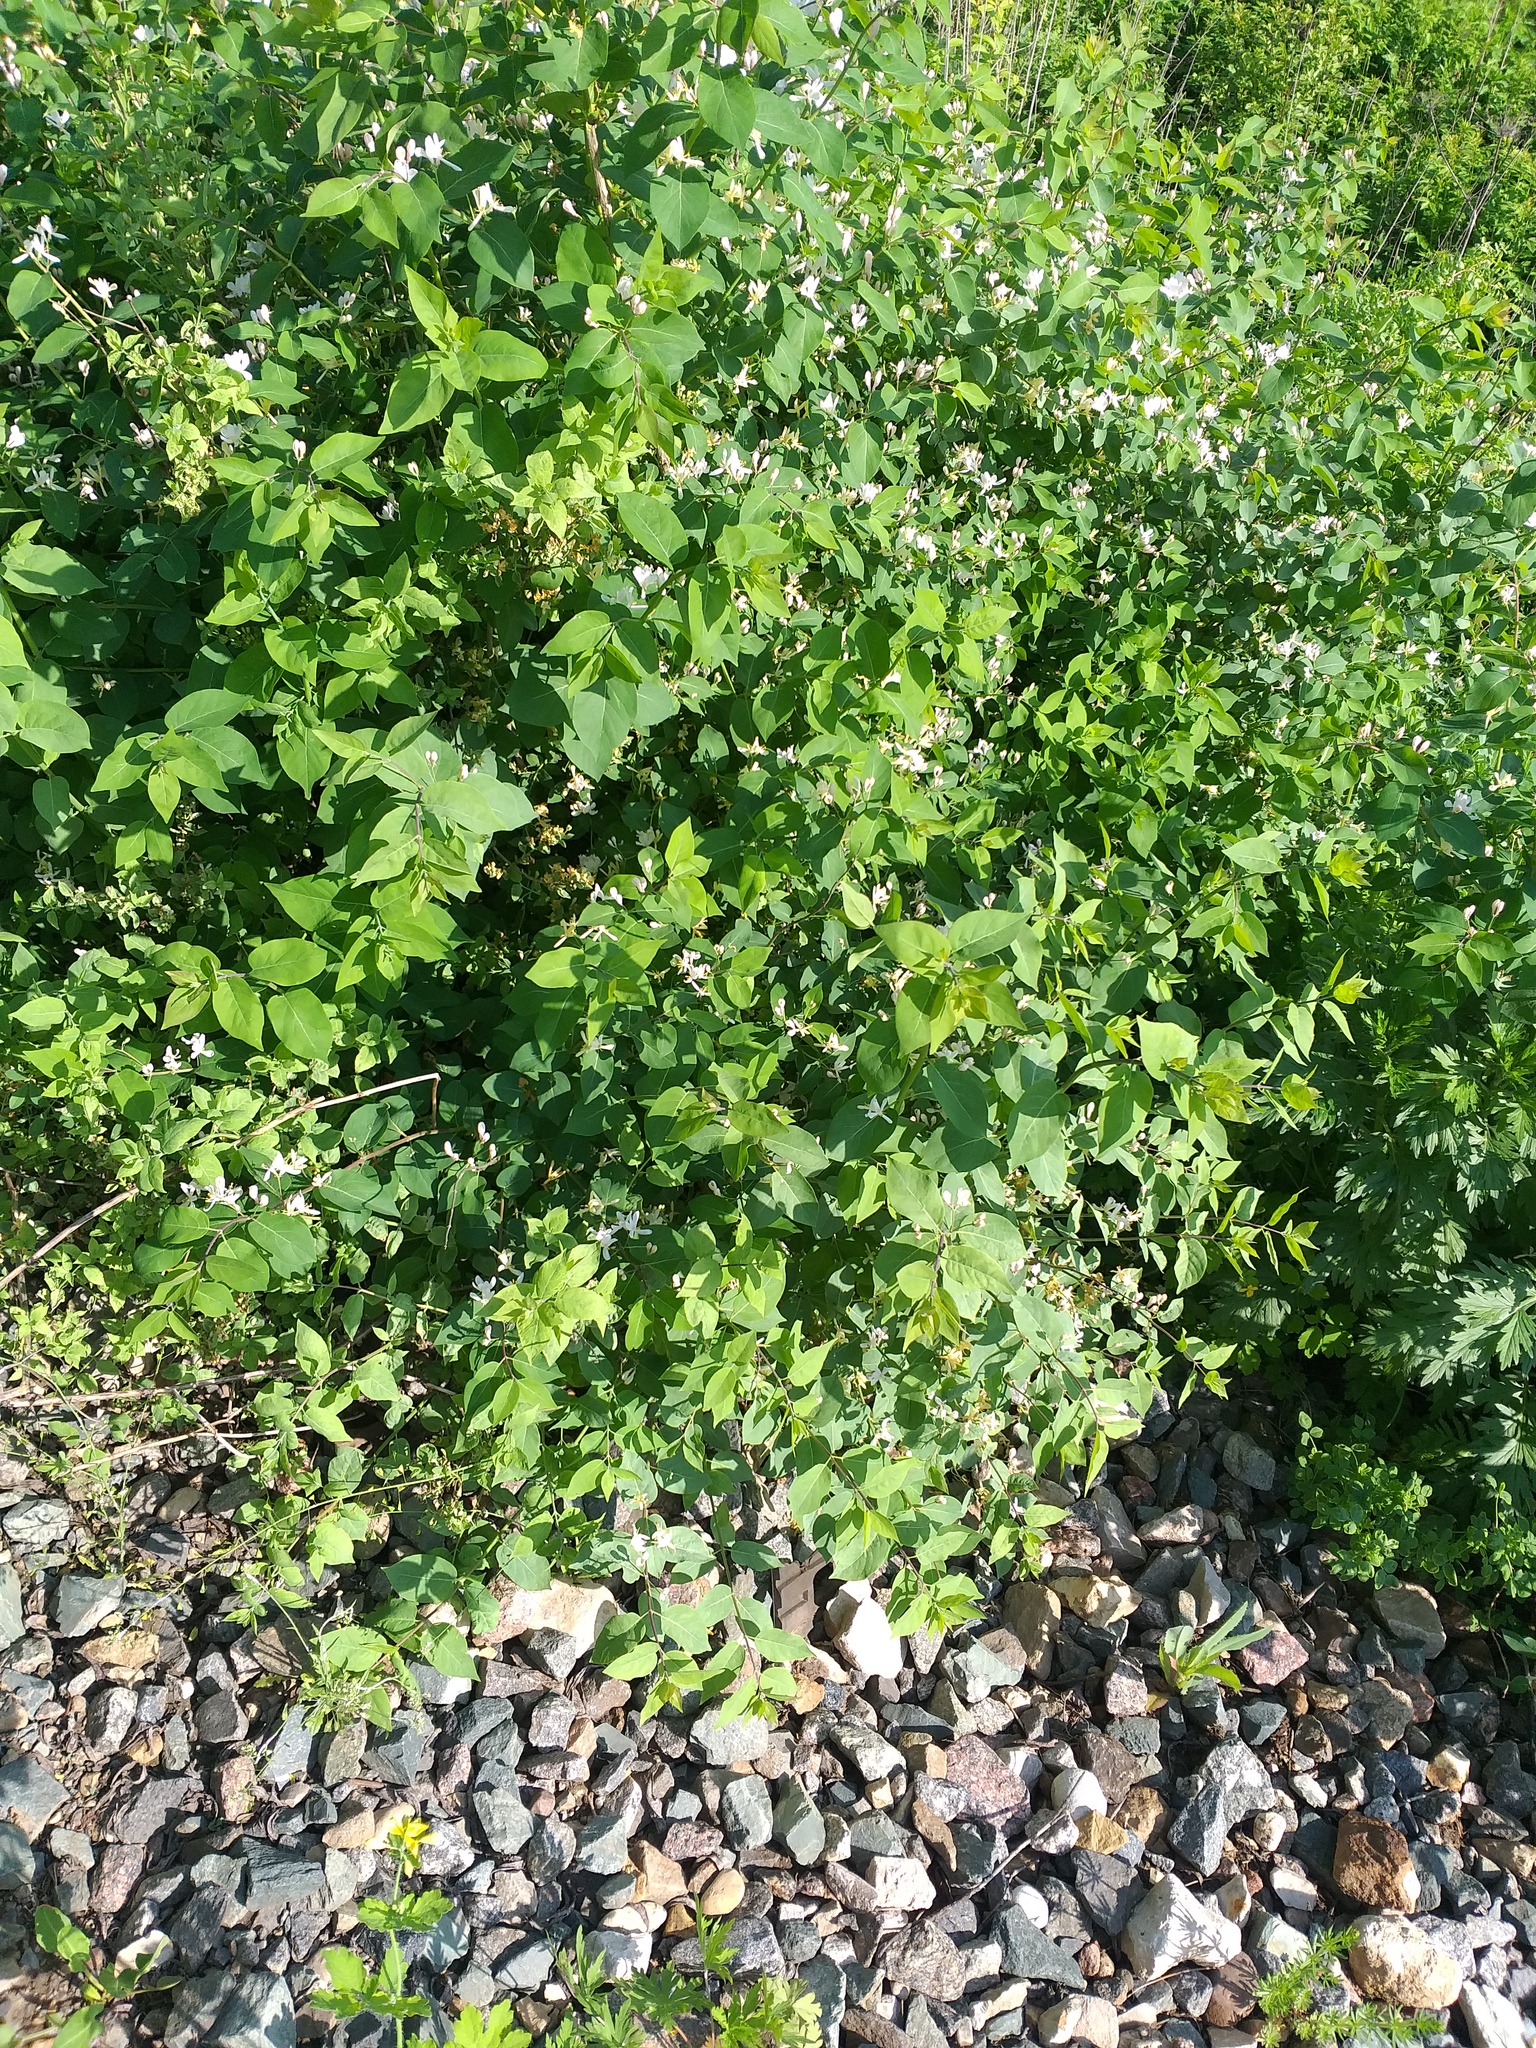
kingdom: Plantae
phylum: Tracheophyta
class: Magnoliopsida
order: Dipsacales
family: Caprifoliaceae
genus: Lonicera
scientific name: Lonicera tatarica
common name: Tatarian honeysuckle
